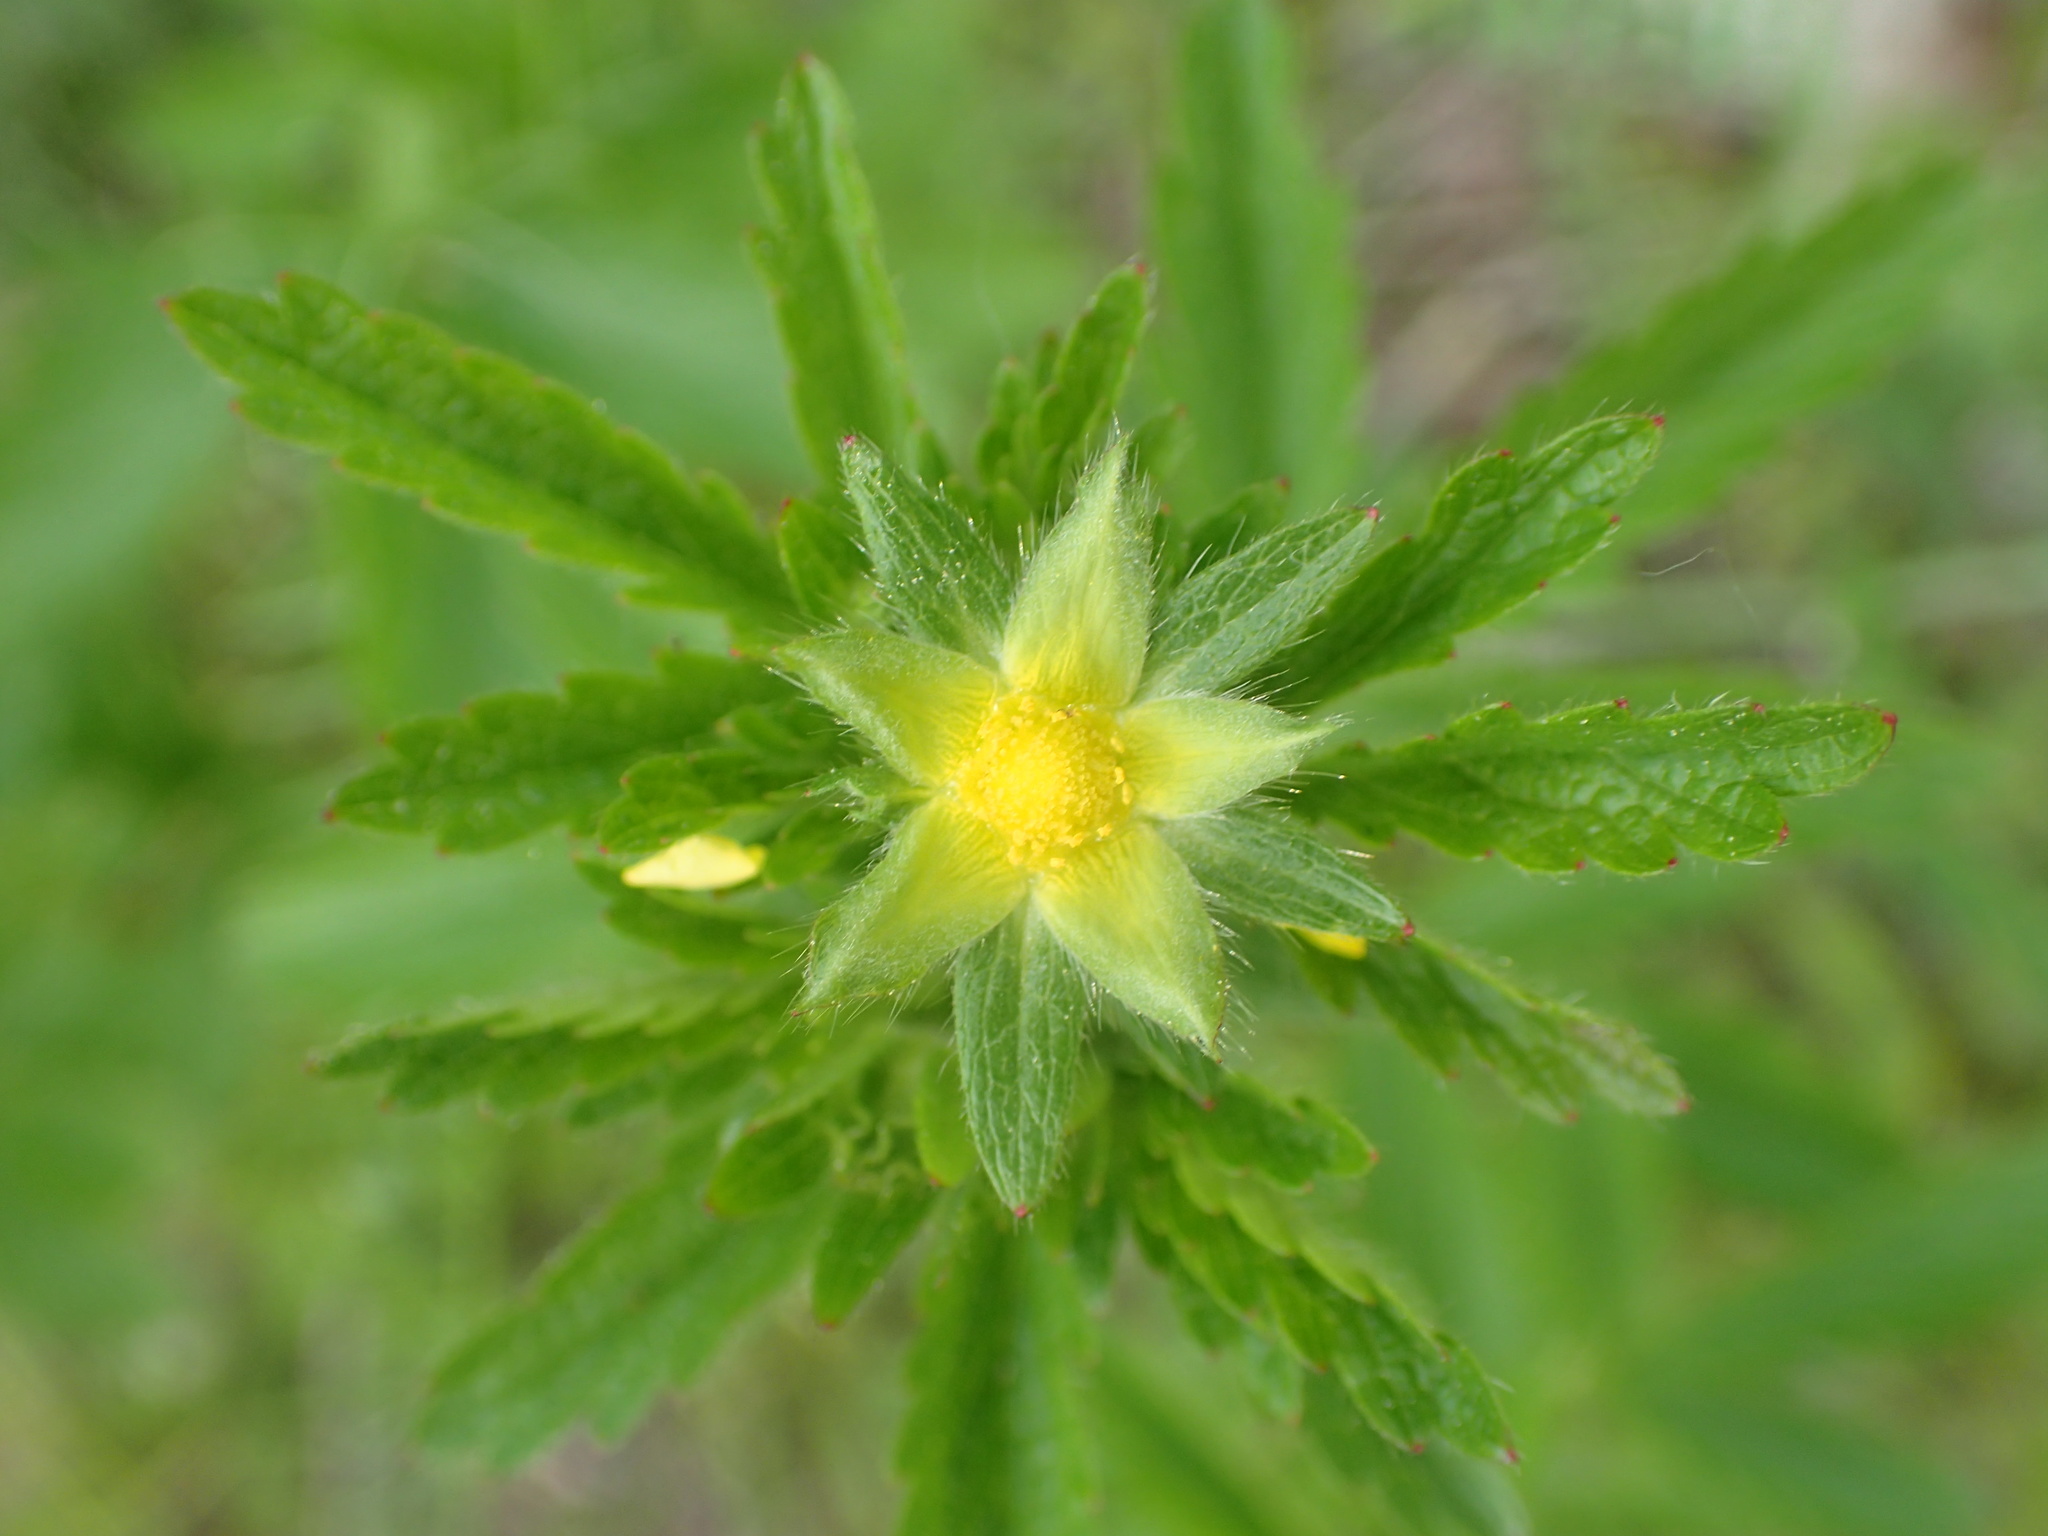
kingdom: Plantae
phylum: Tracheophyta
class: Magnoliopsida
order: Rosales
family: Rosaceae
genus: Potentilla
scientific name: Potentilla norvegica
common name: Ternate-leaved cinquefoil
